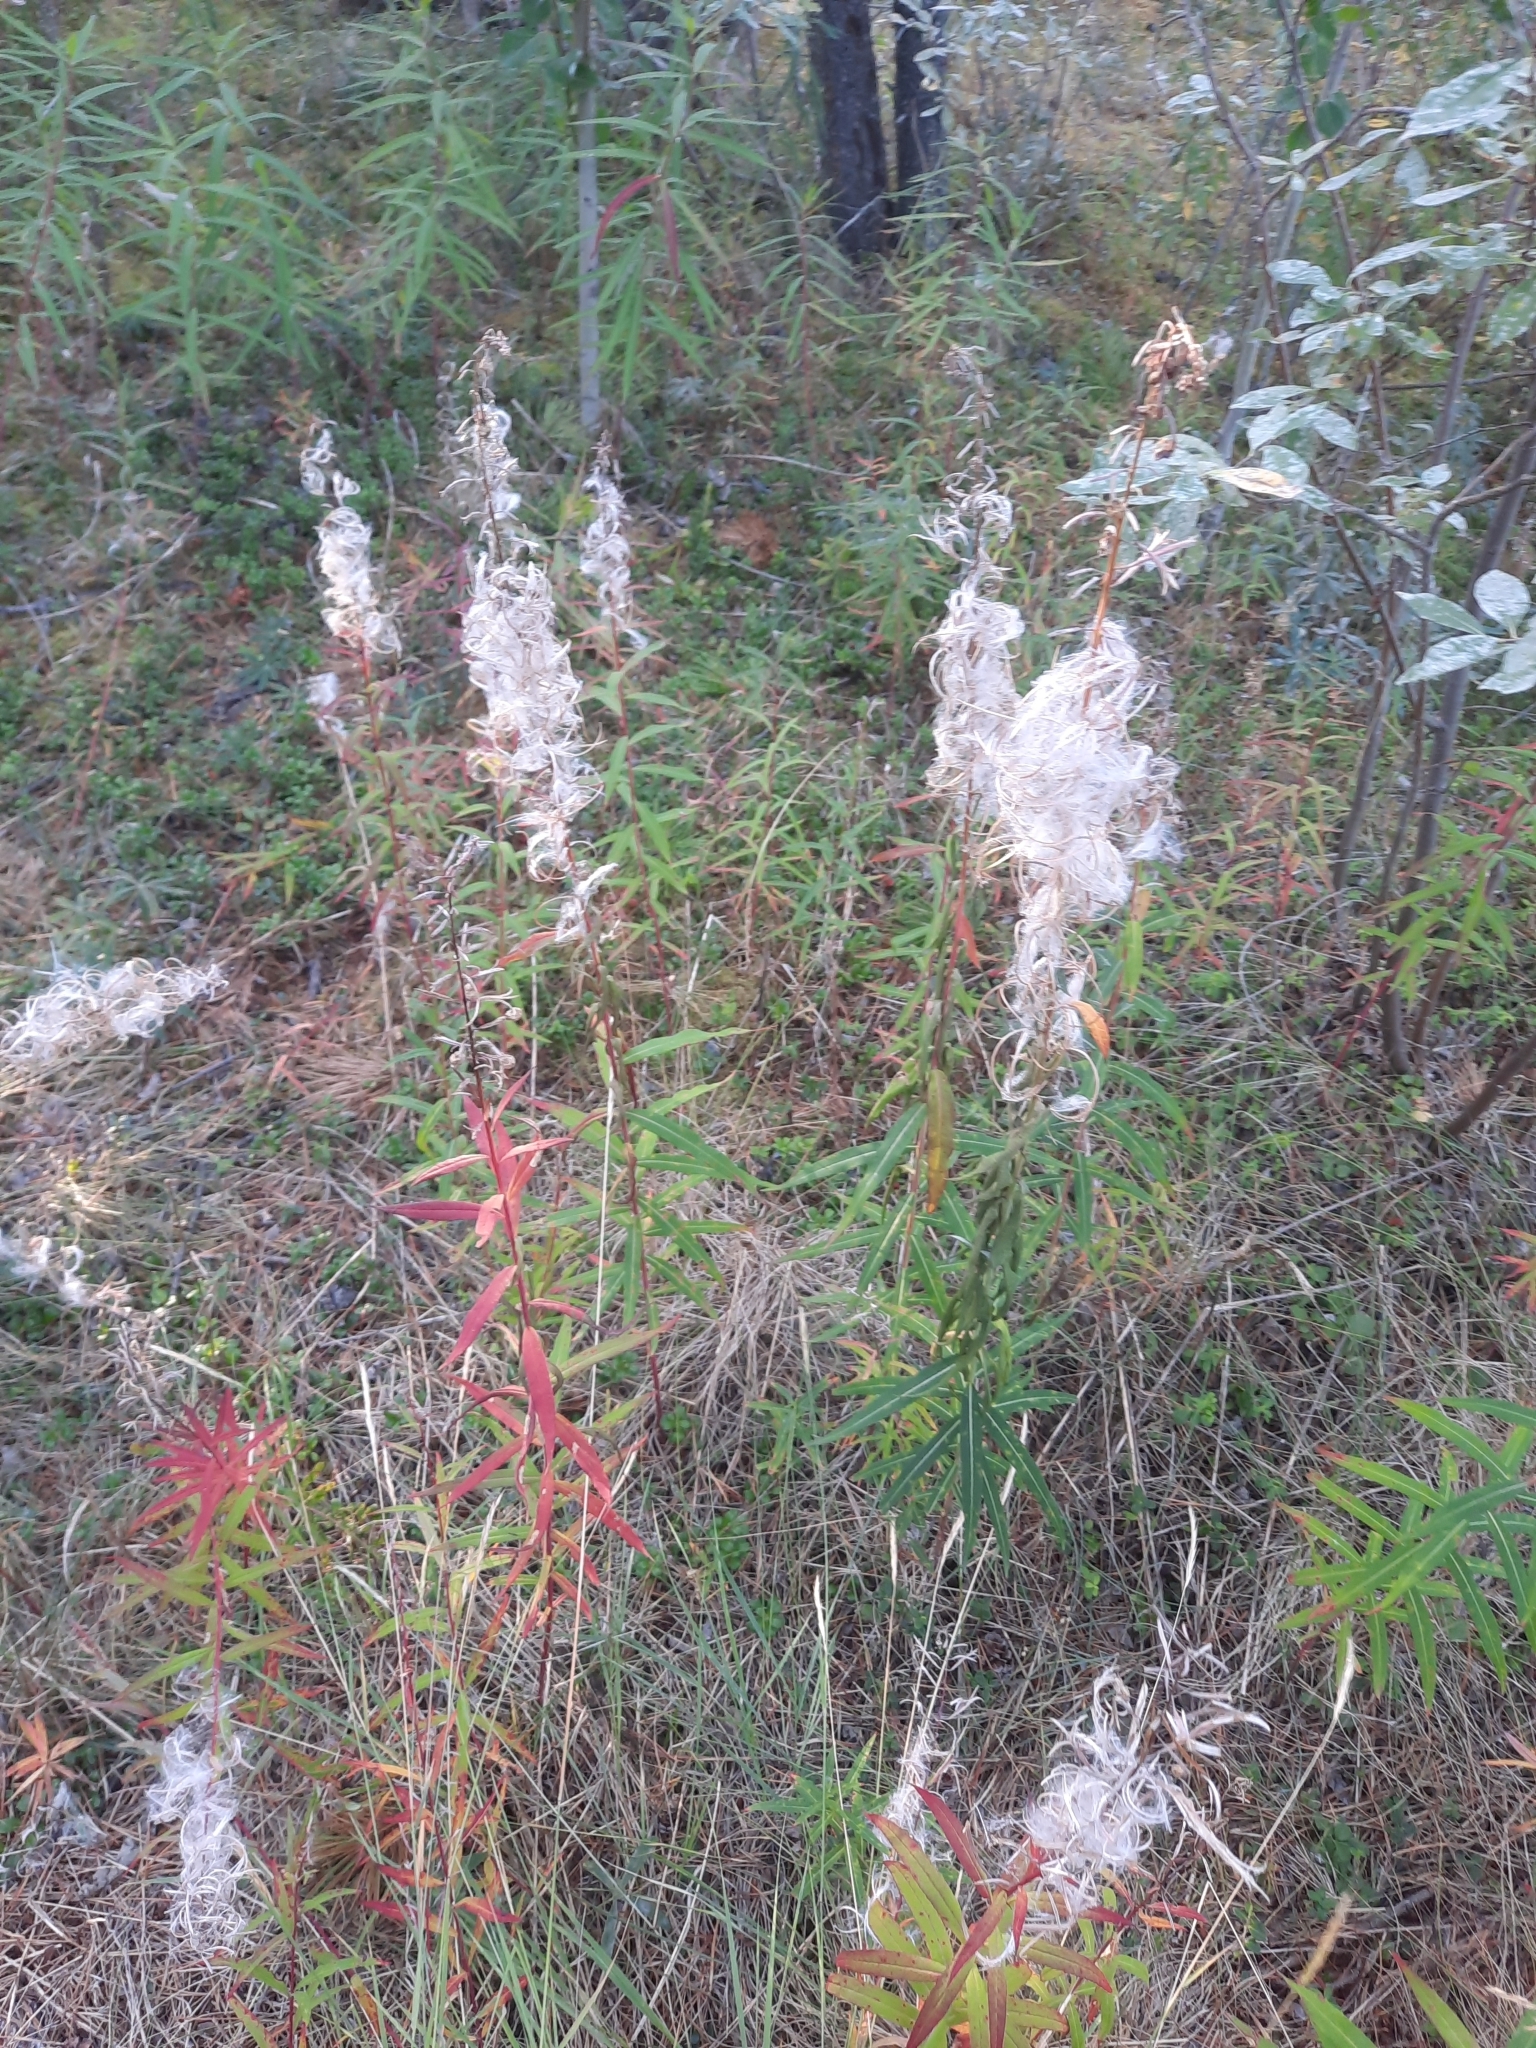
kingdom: Plantae
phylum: Tracheophyta
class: Magnoliopsida
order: Myrtales
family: Onagraceae
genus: Chamaenerion
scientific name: Chamaenerion angustifolium
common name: Fireweed
